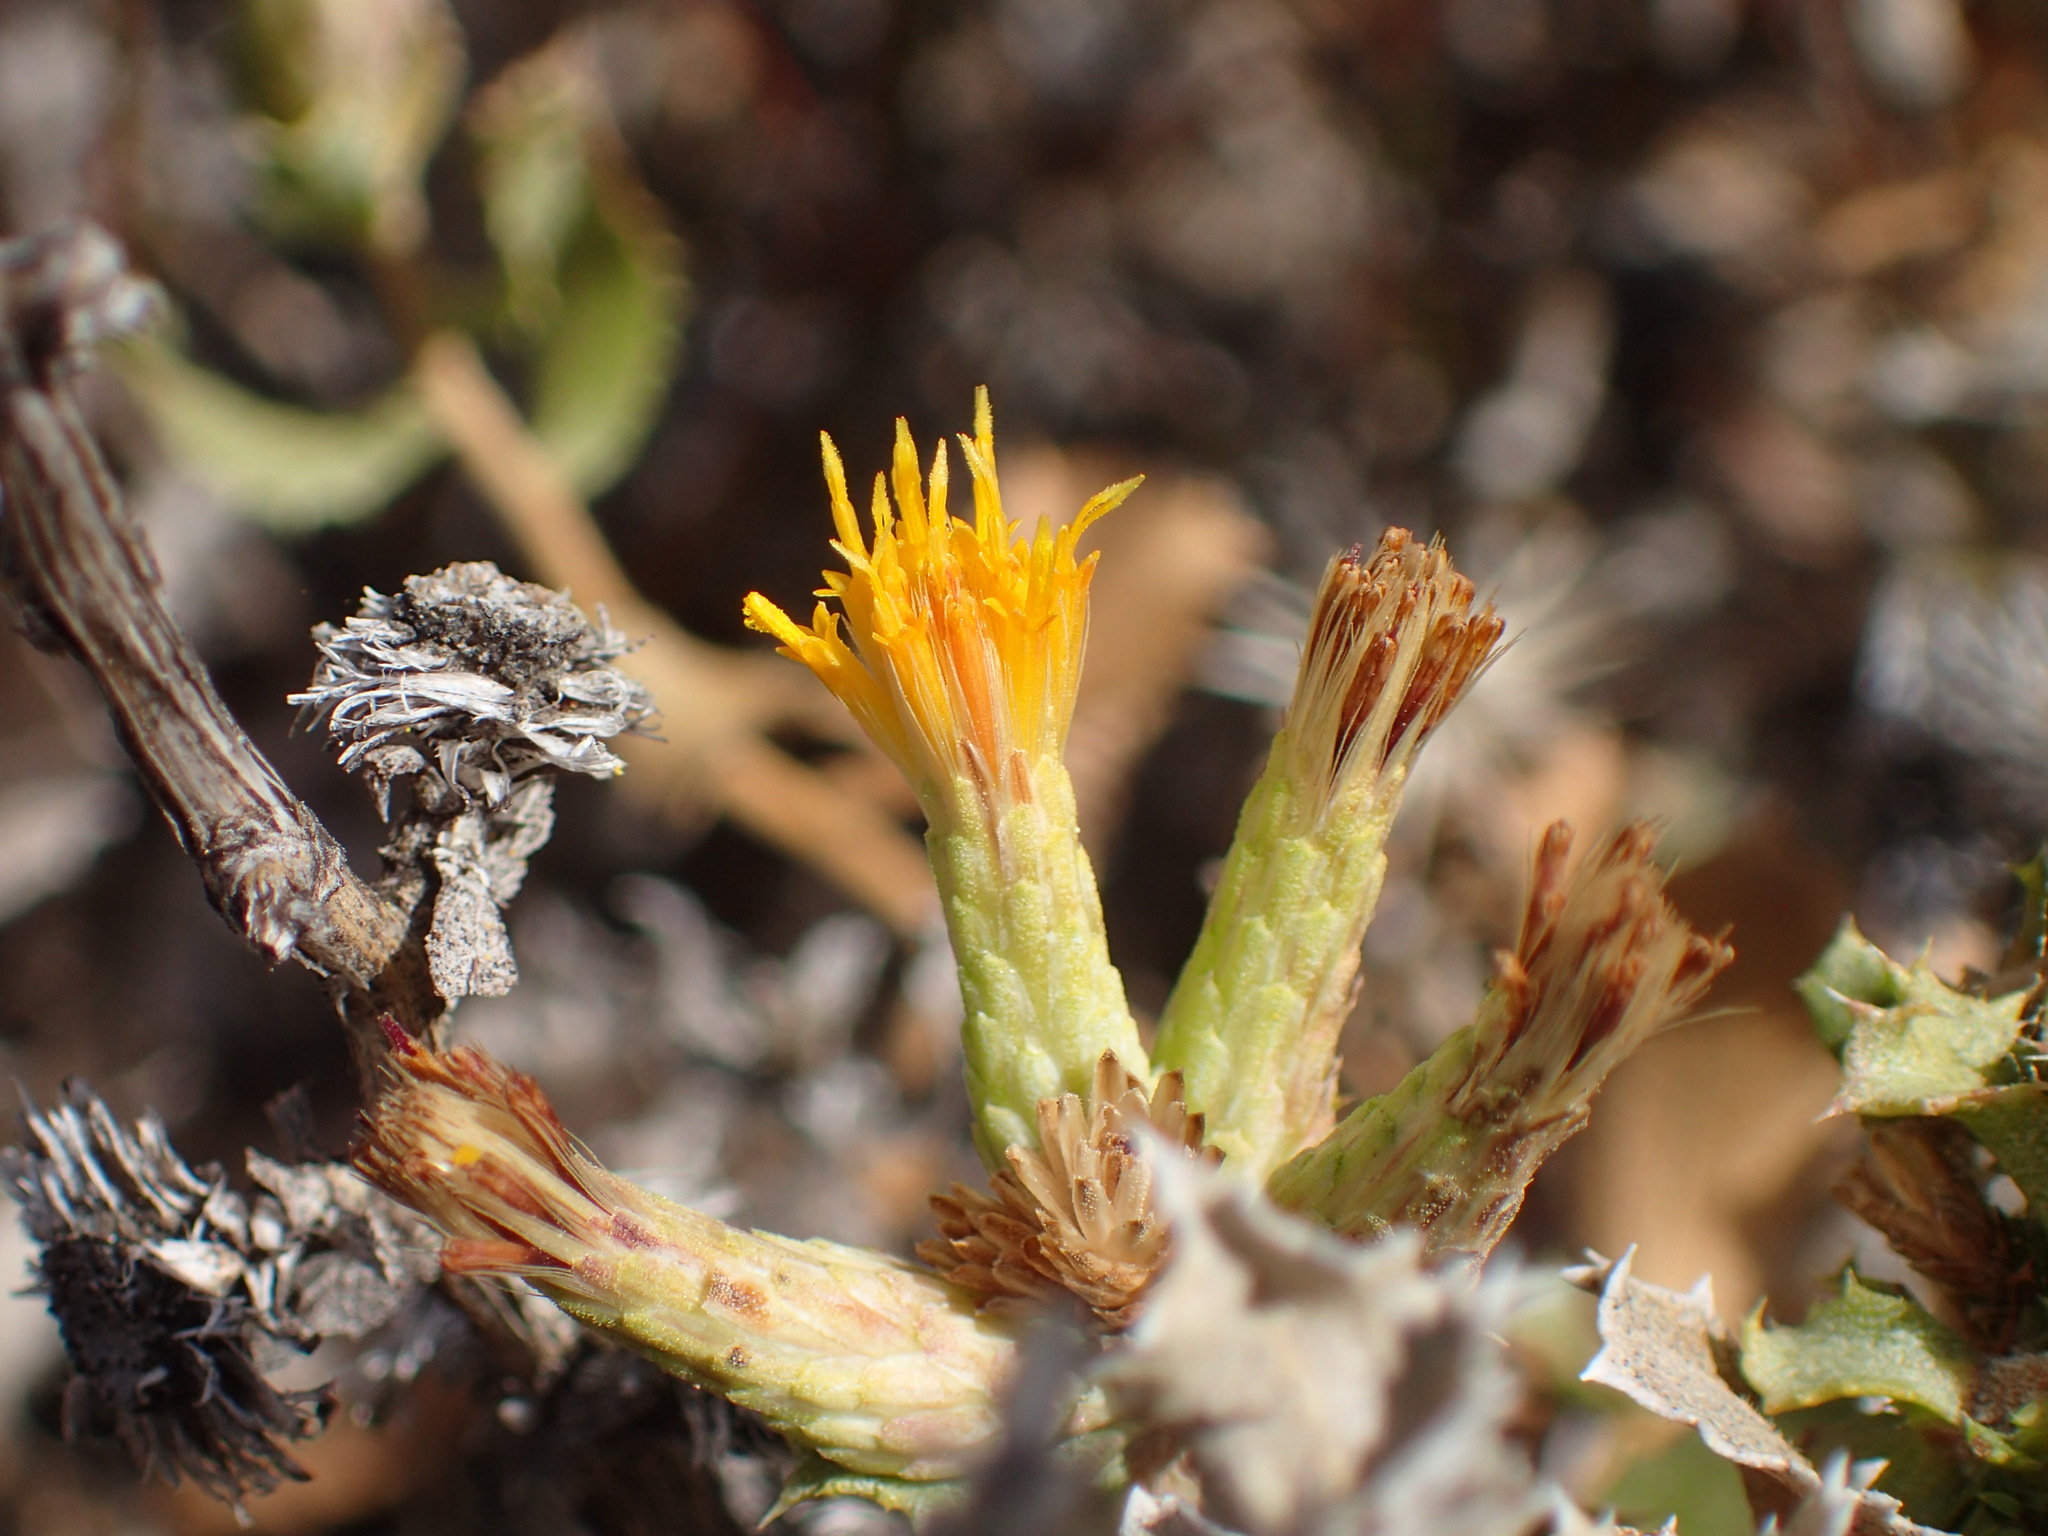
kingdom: Plantae
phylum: Tracheophyta
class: Magnoliopsida
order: Asterales
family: Asteraceae
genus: Hazardia
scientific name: Hazardia squarrosa
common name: Saw-tooth goldenbush
